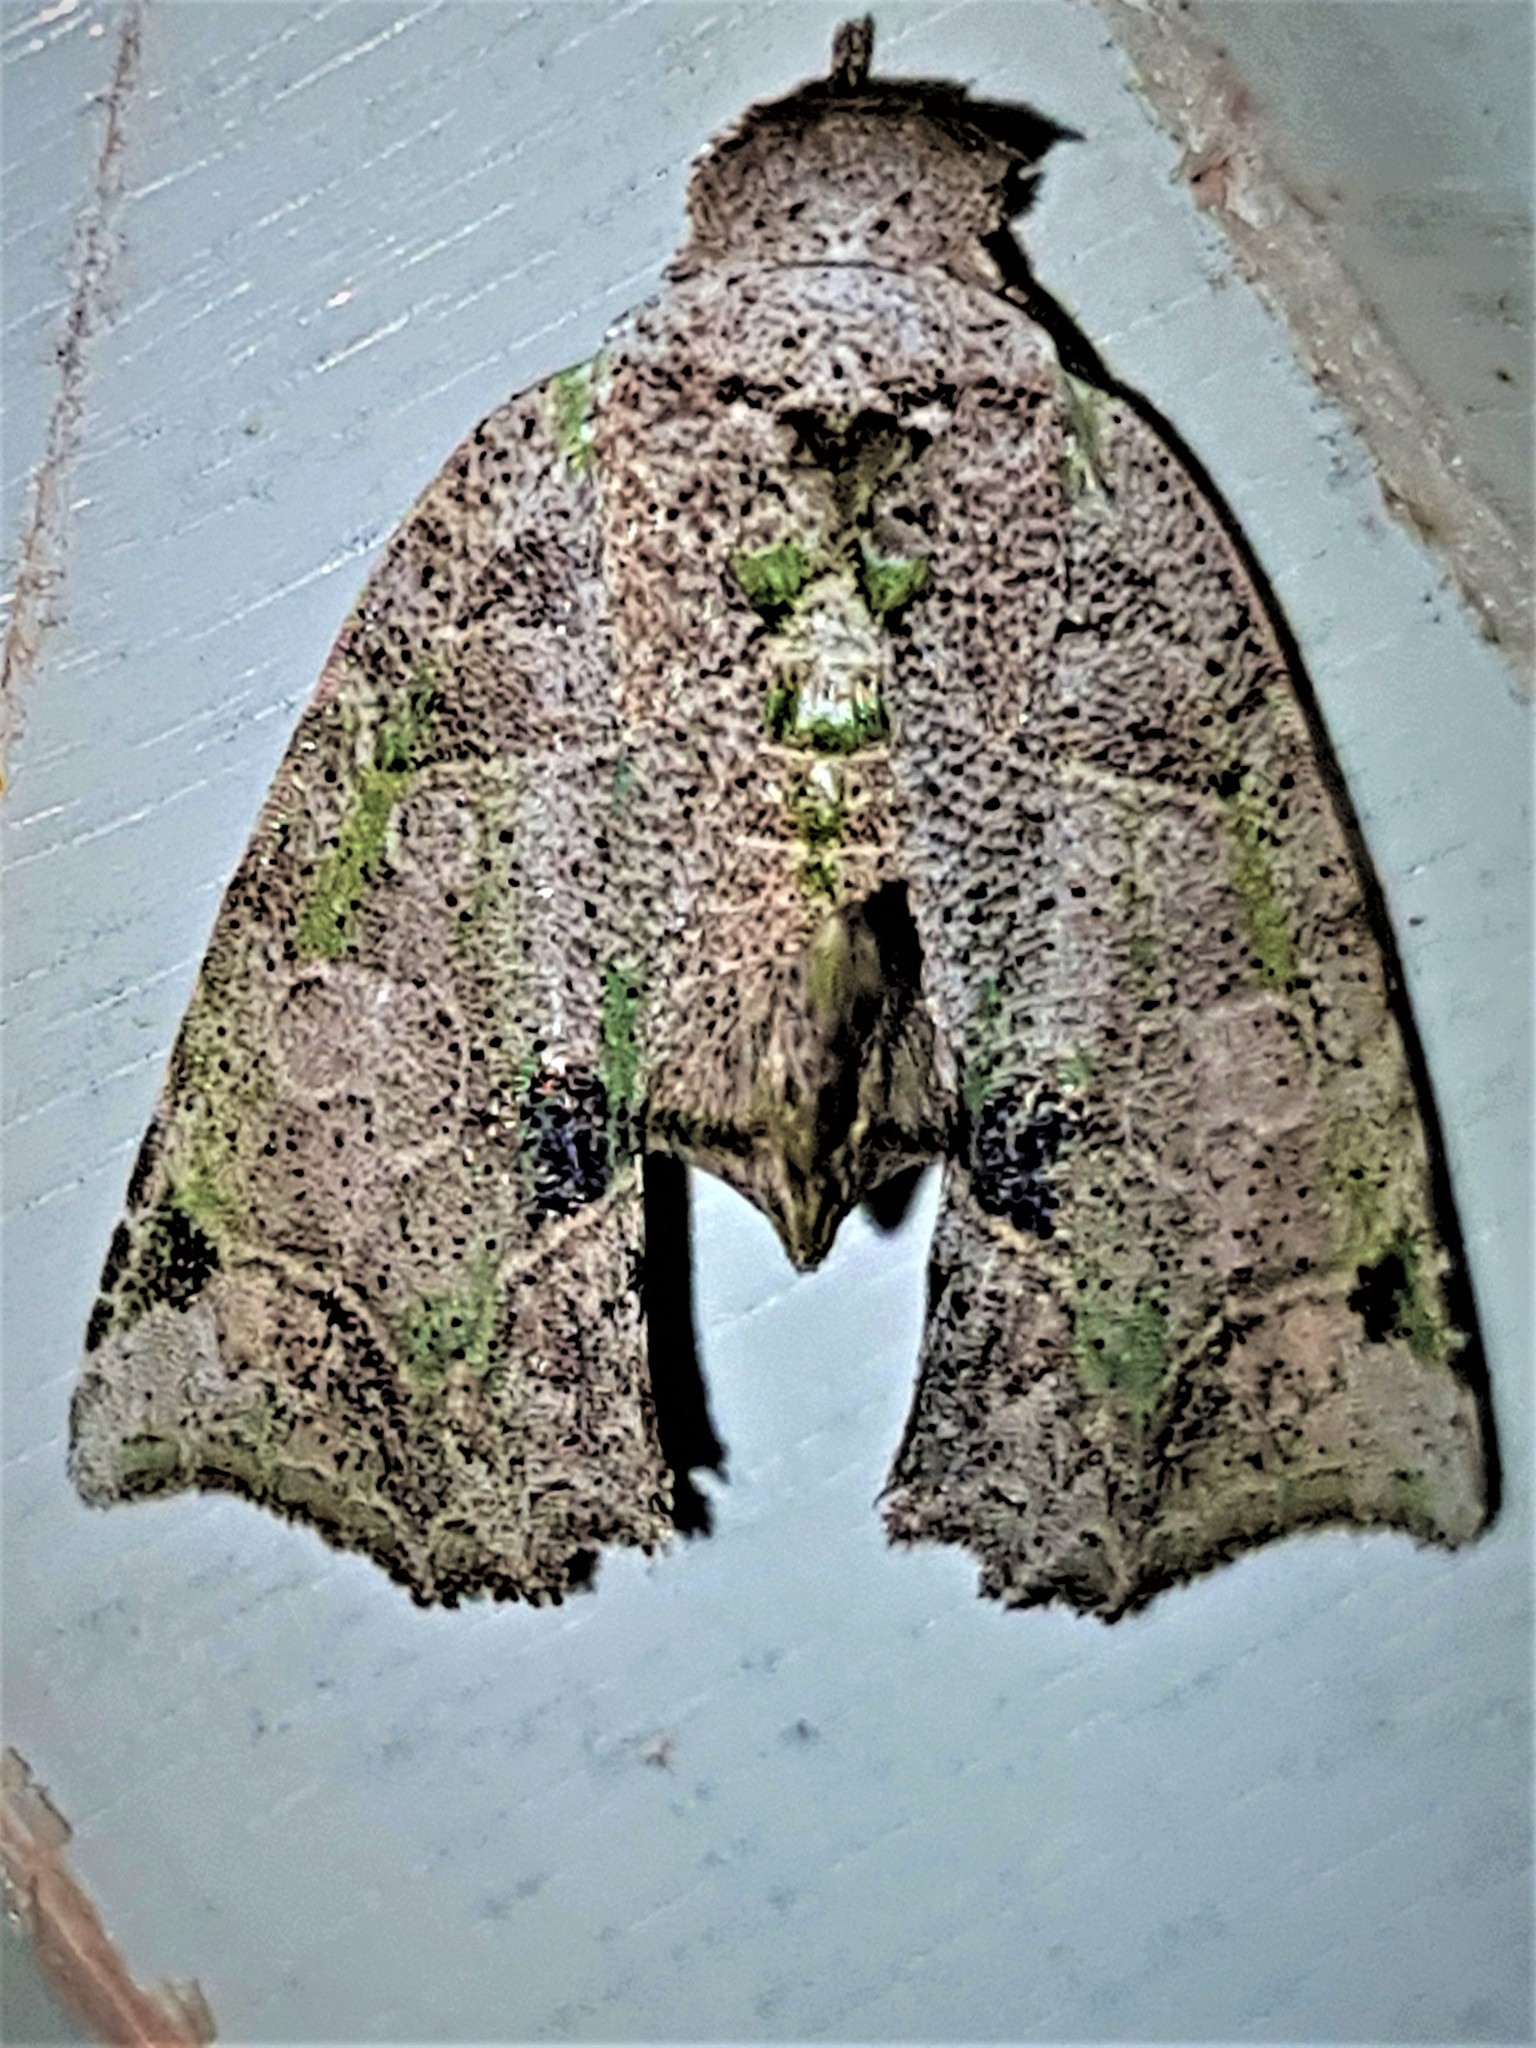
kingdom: Animalia
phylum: Arthropoda
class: Insecta
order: Lepidoptera
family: Erebidae
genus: Pelodesis
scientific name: Pelodesis viridifera
